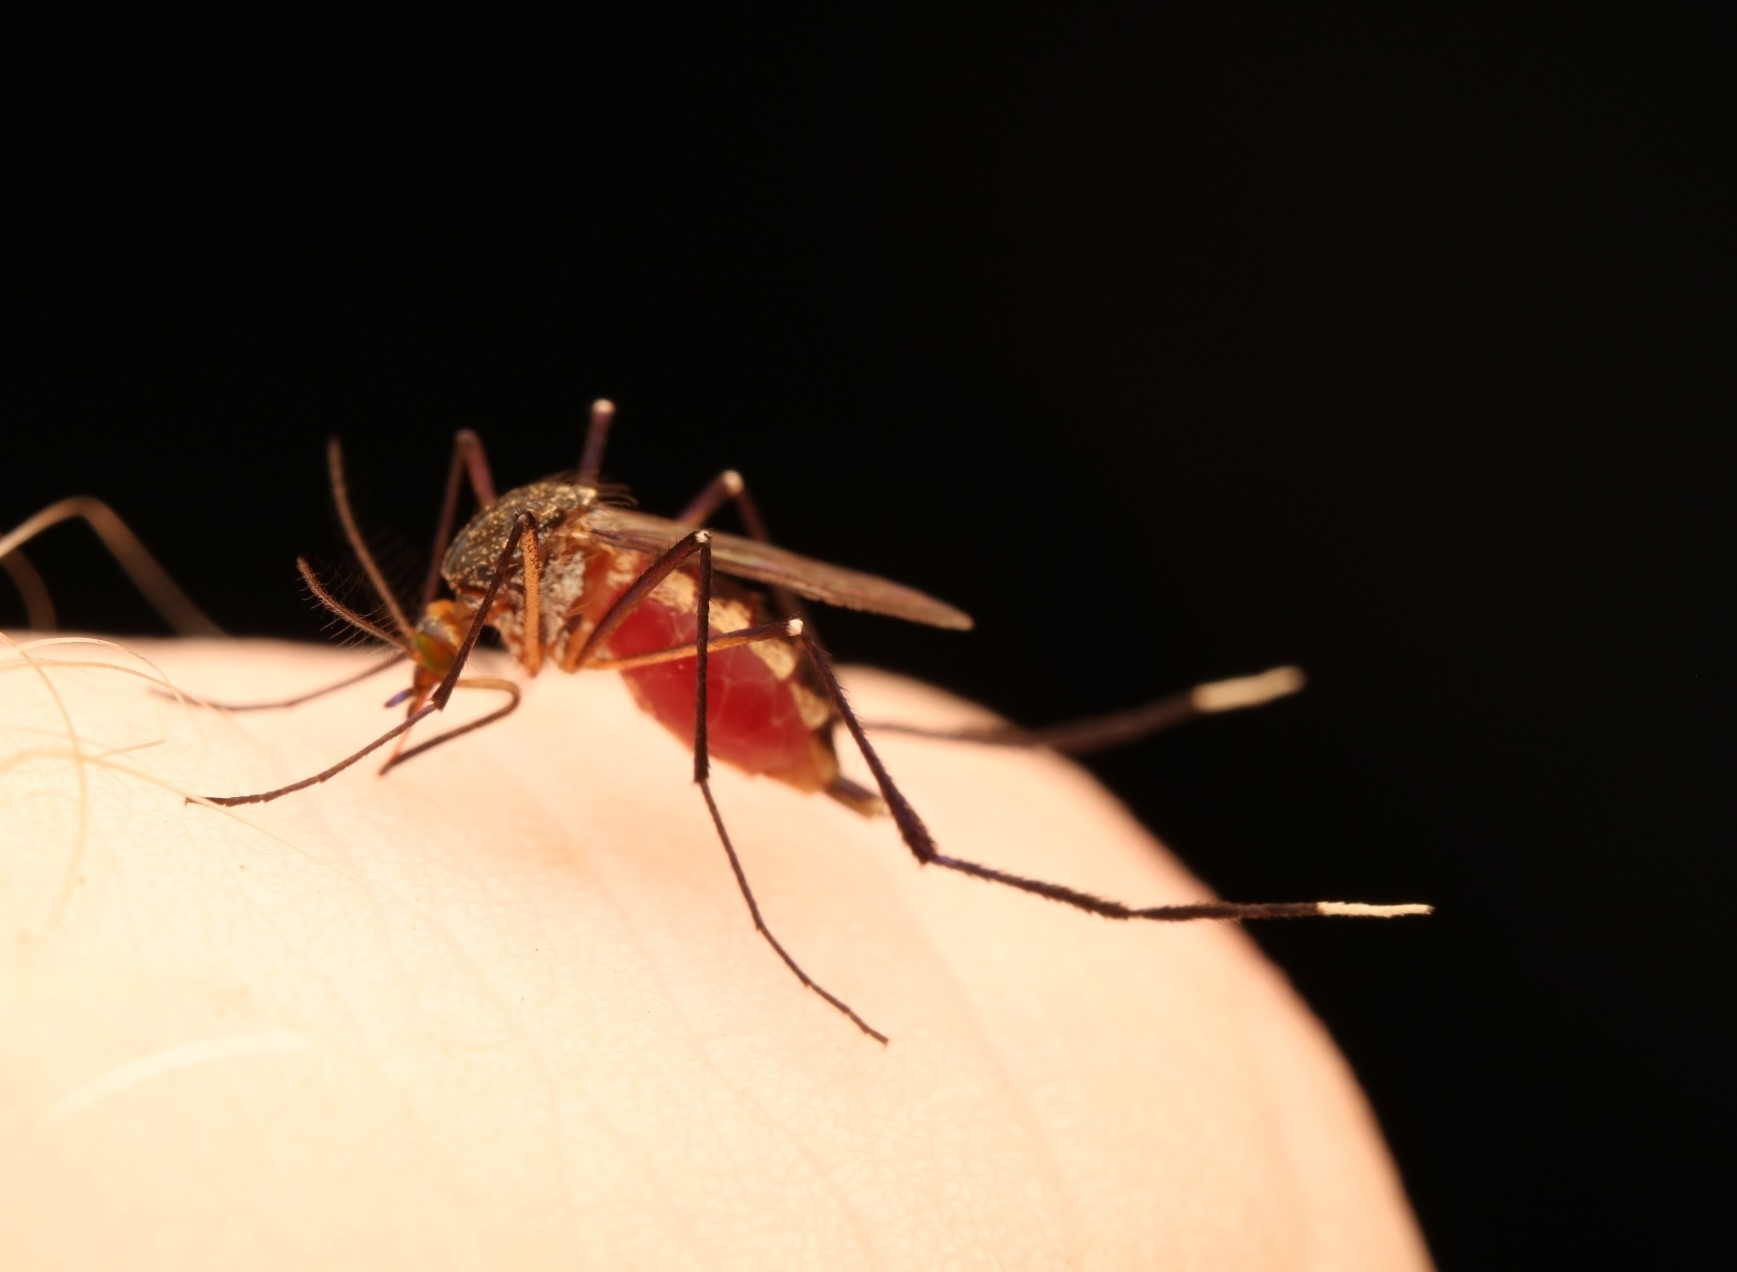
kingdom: Animalia
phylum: Arthropoda
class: Insecta
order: Diptera
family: Culicidae
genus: Psorophora
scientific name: Psorophora ferox
